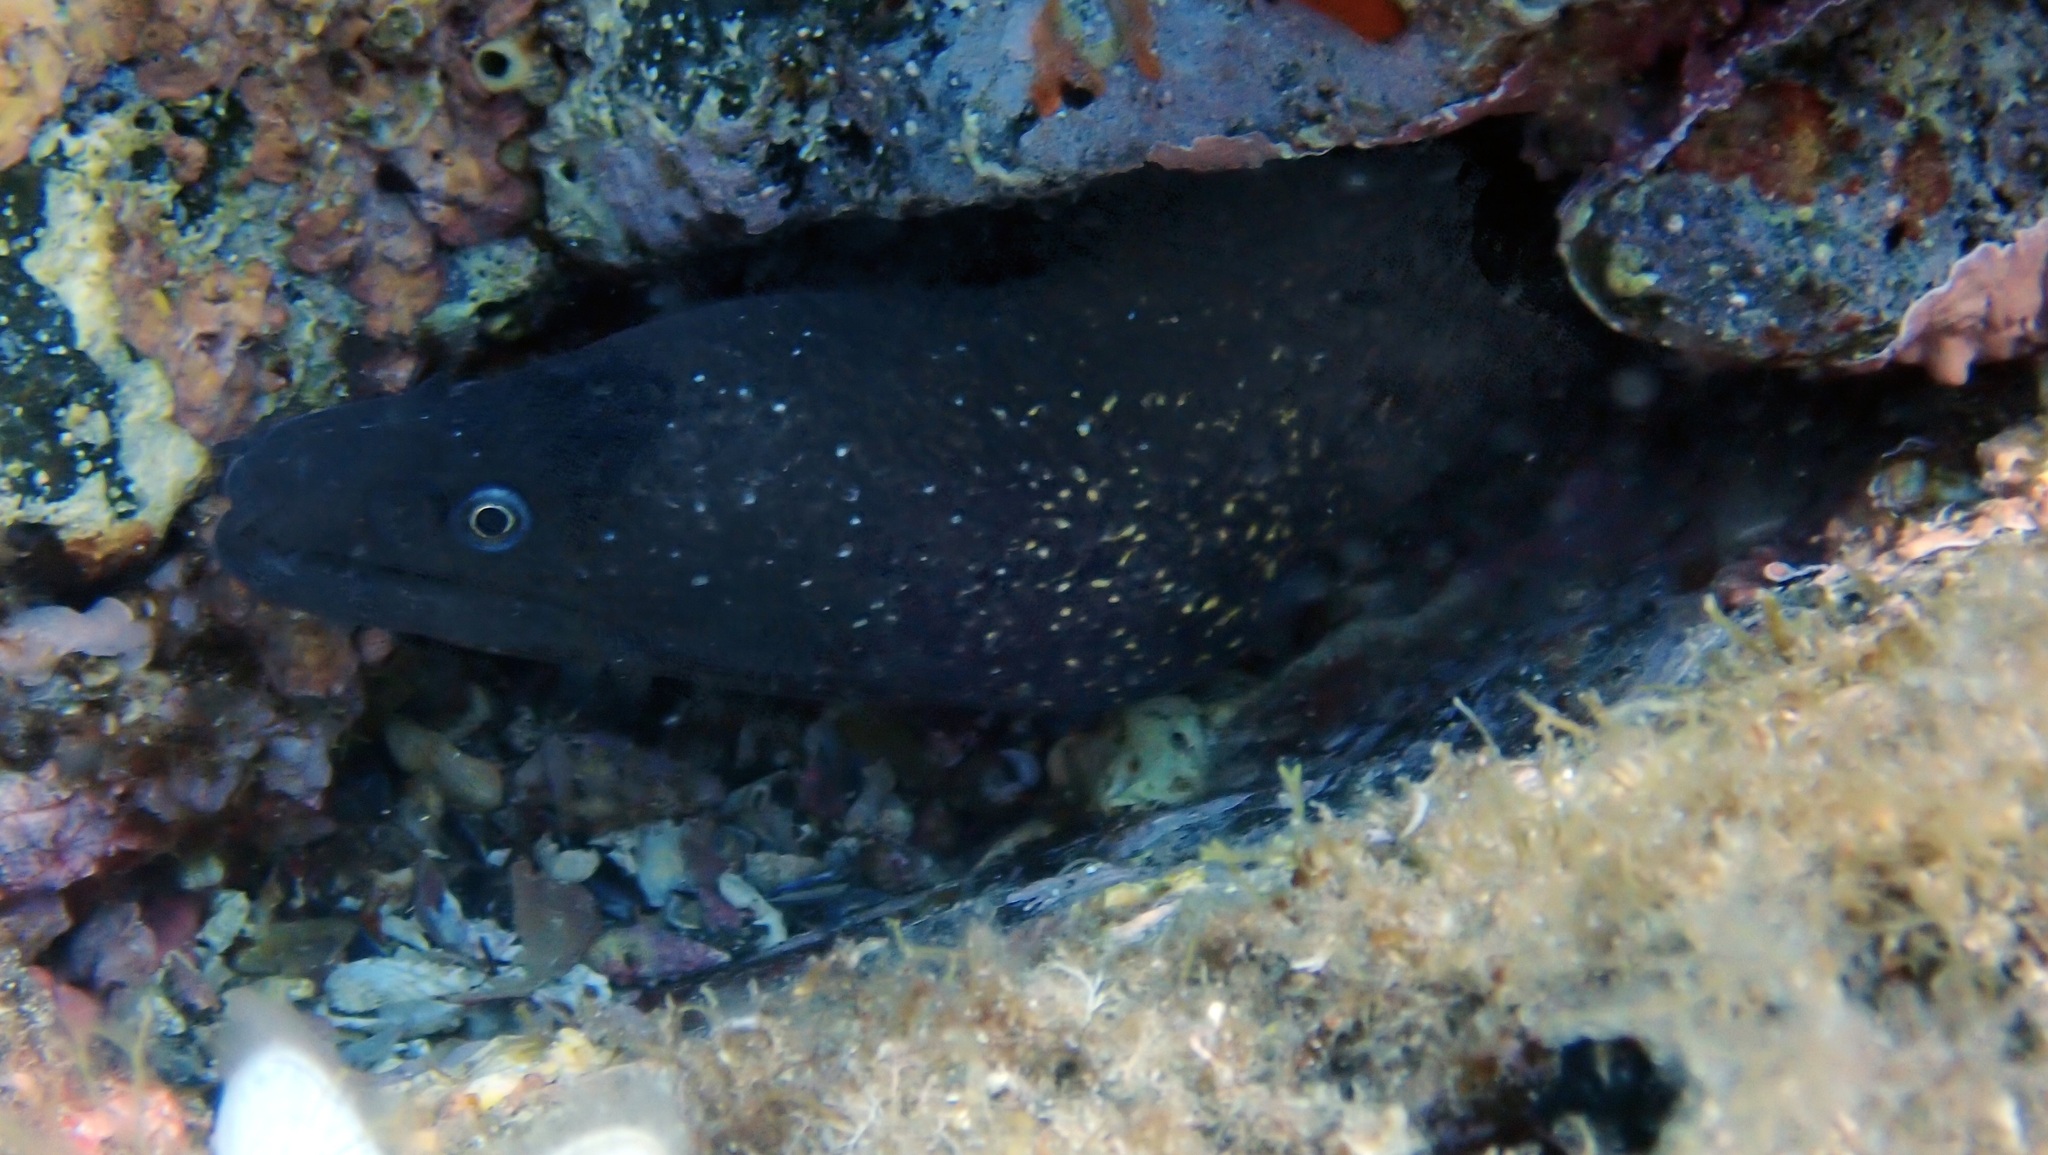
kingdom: Animalia
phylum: Chordata
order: Anguilliformes
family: Muraenidae
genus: Muraena
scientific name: Muraena helena
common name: Mediterranean moray
